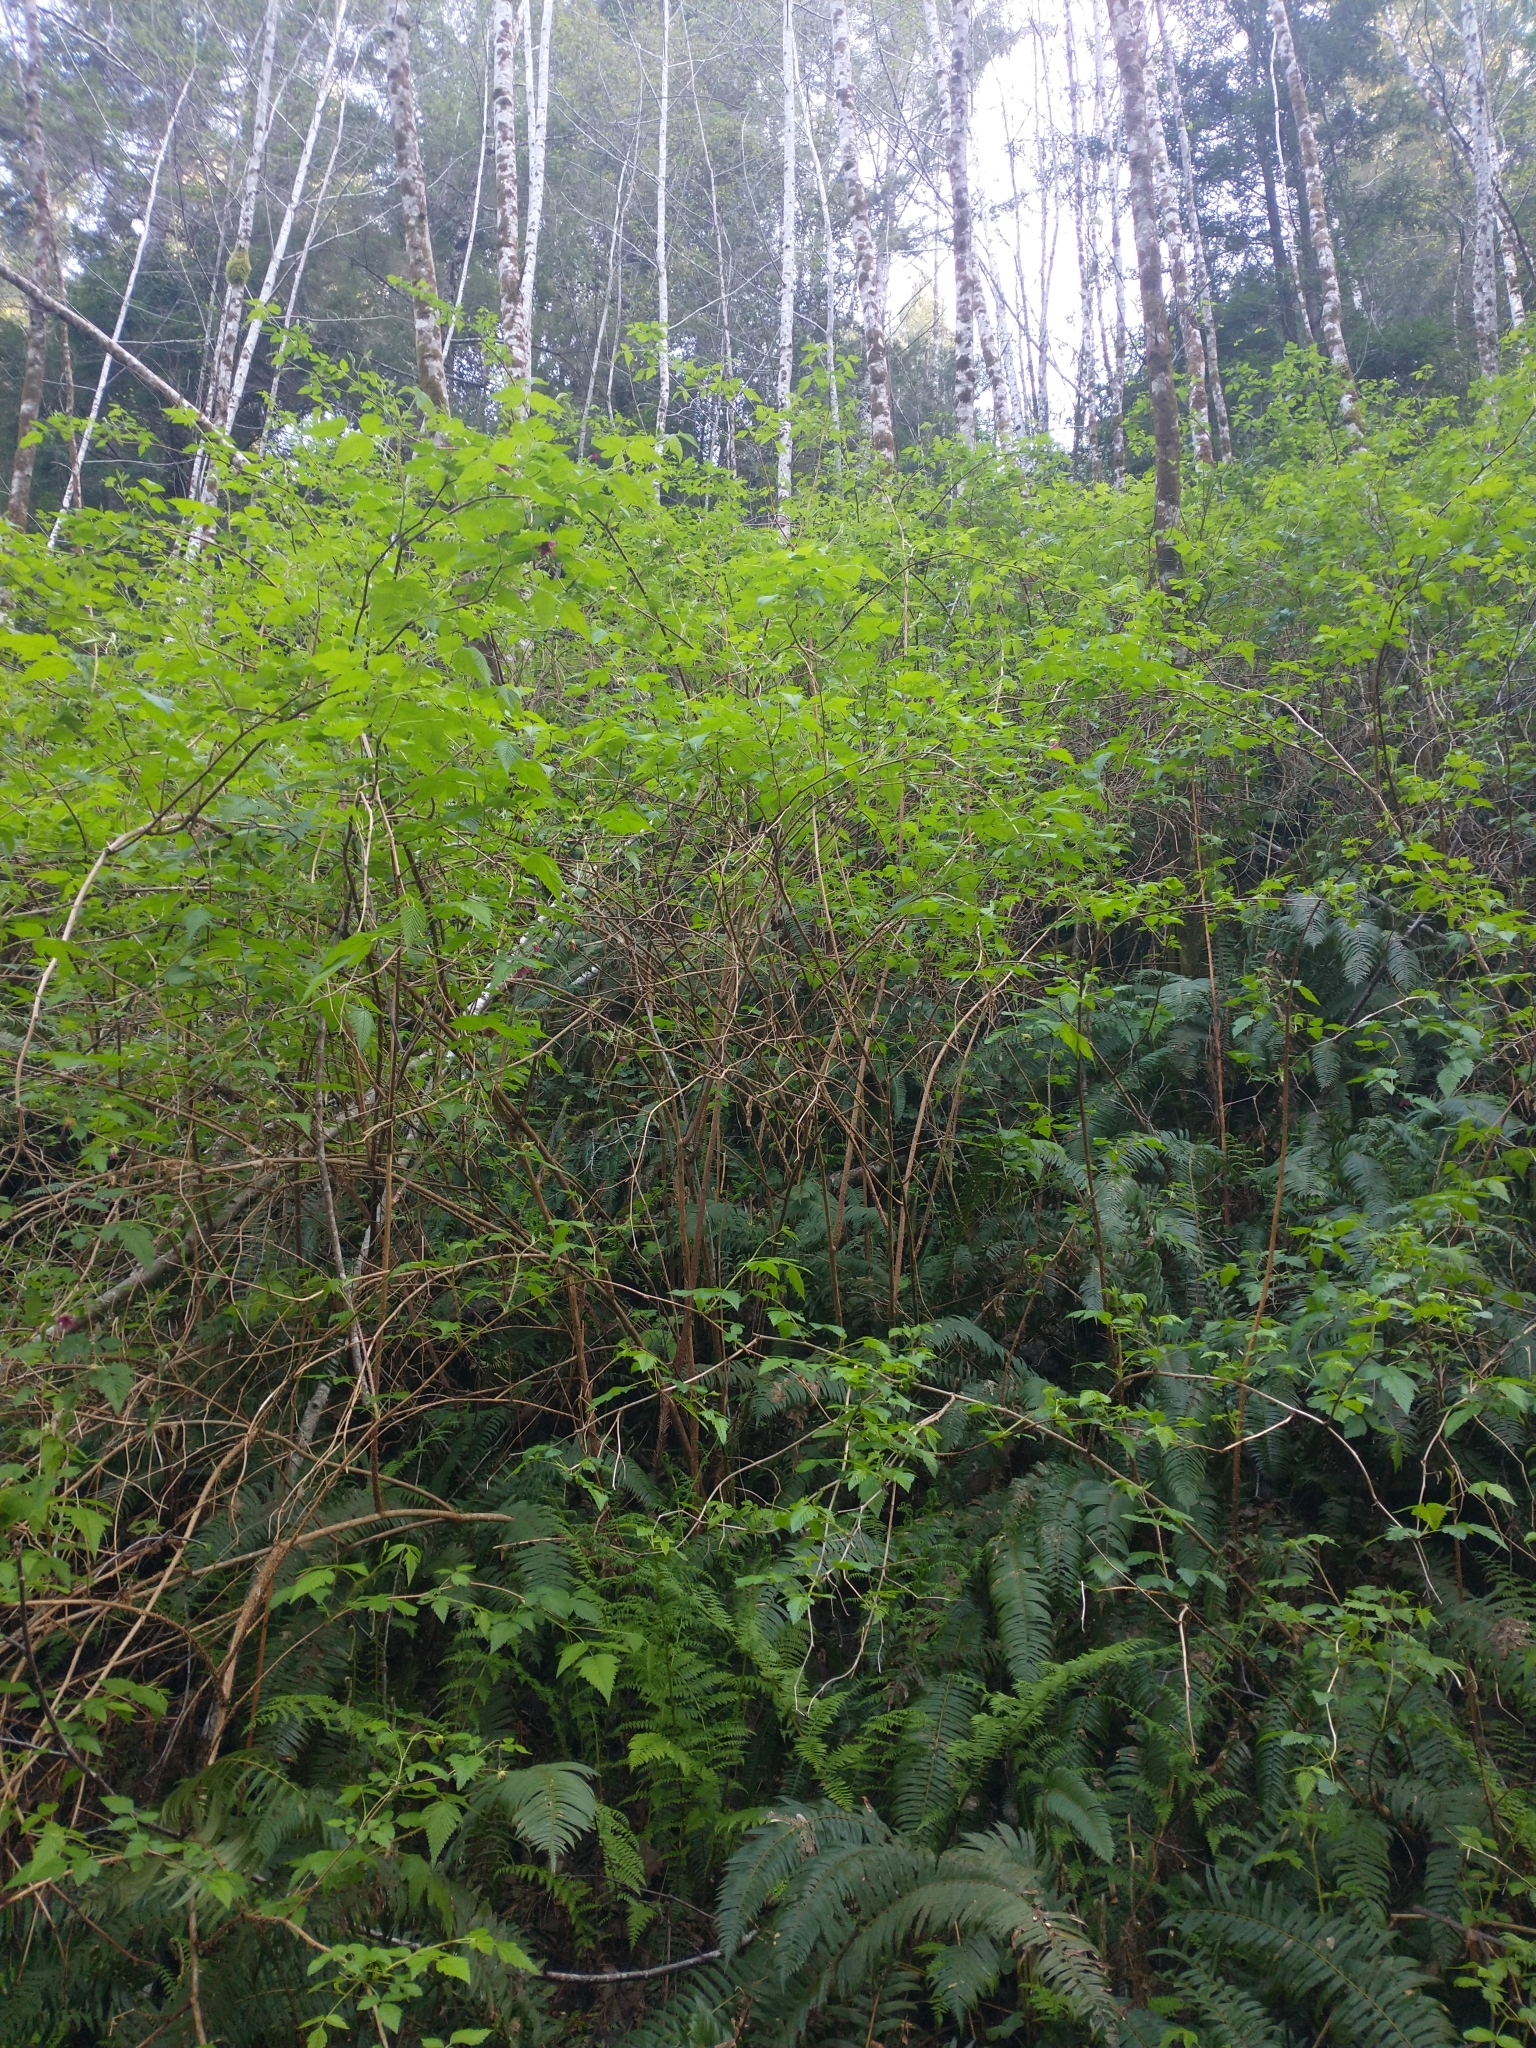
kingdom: Plantae
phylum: Tracheophyta
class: Magnoliopsida
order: Rosales
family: Rosaceae
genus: Rubus
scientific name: Rubus spectabilis
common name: Salmonberry
